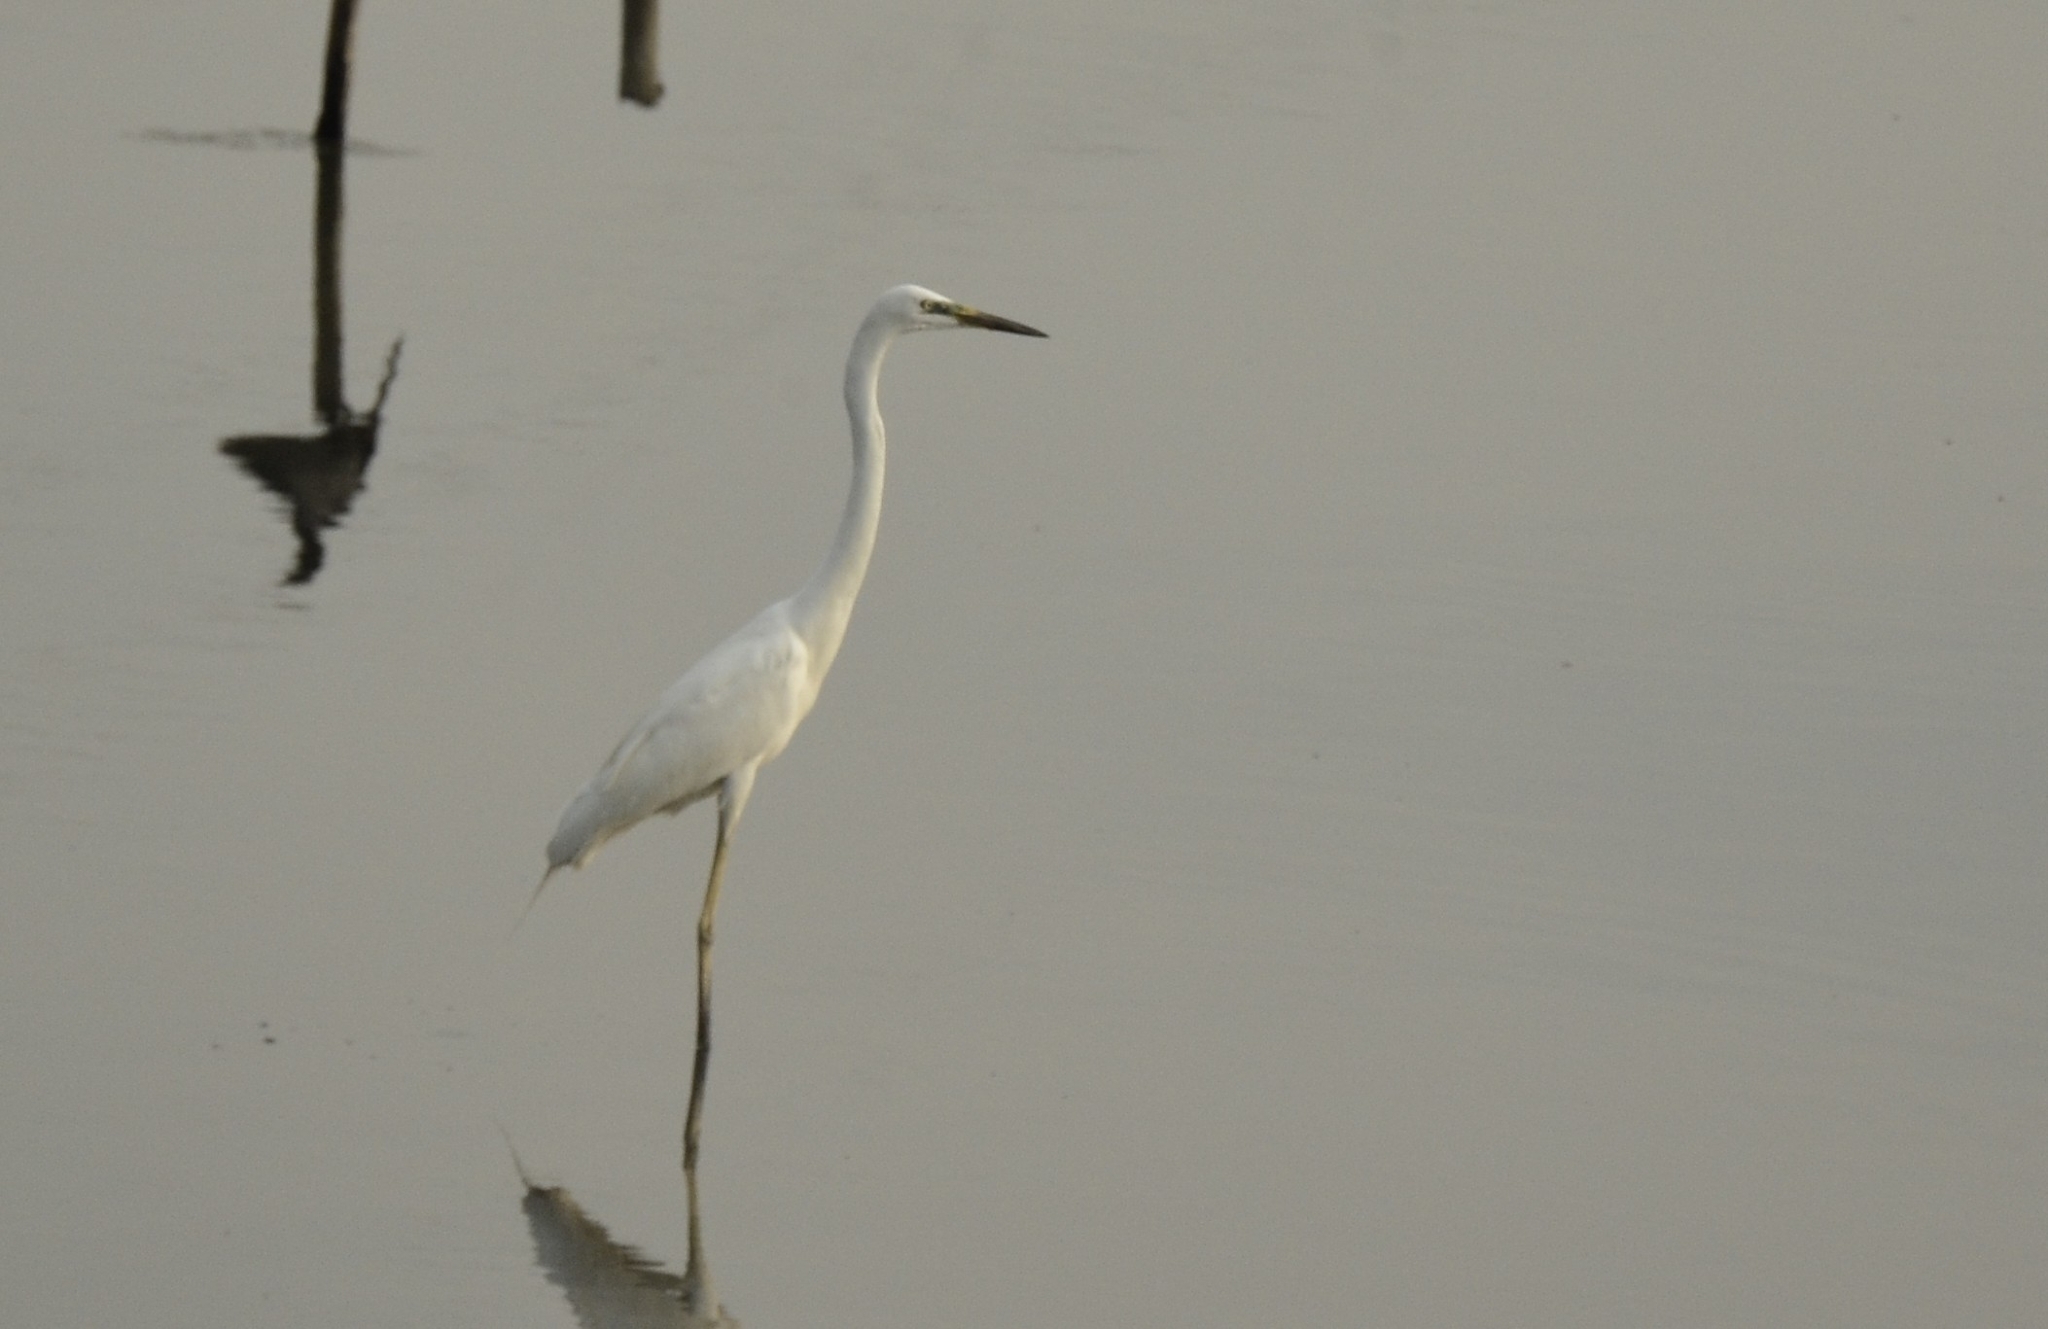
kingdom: Animalia
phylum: Chordata
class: Aves
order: Pelecaniformes
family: Ardeidae
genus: Ardea
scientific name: Ardea alba
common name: Great egret
